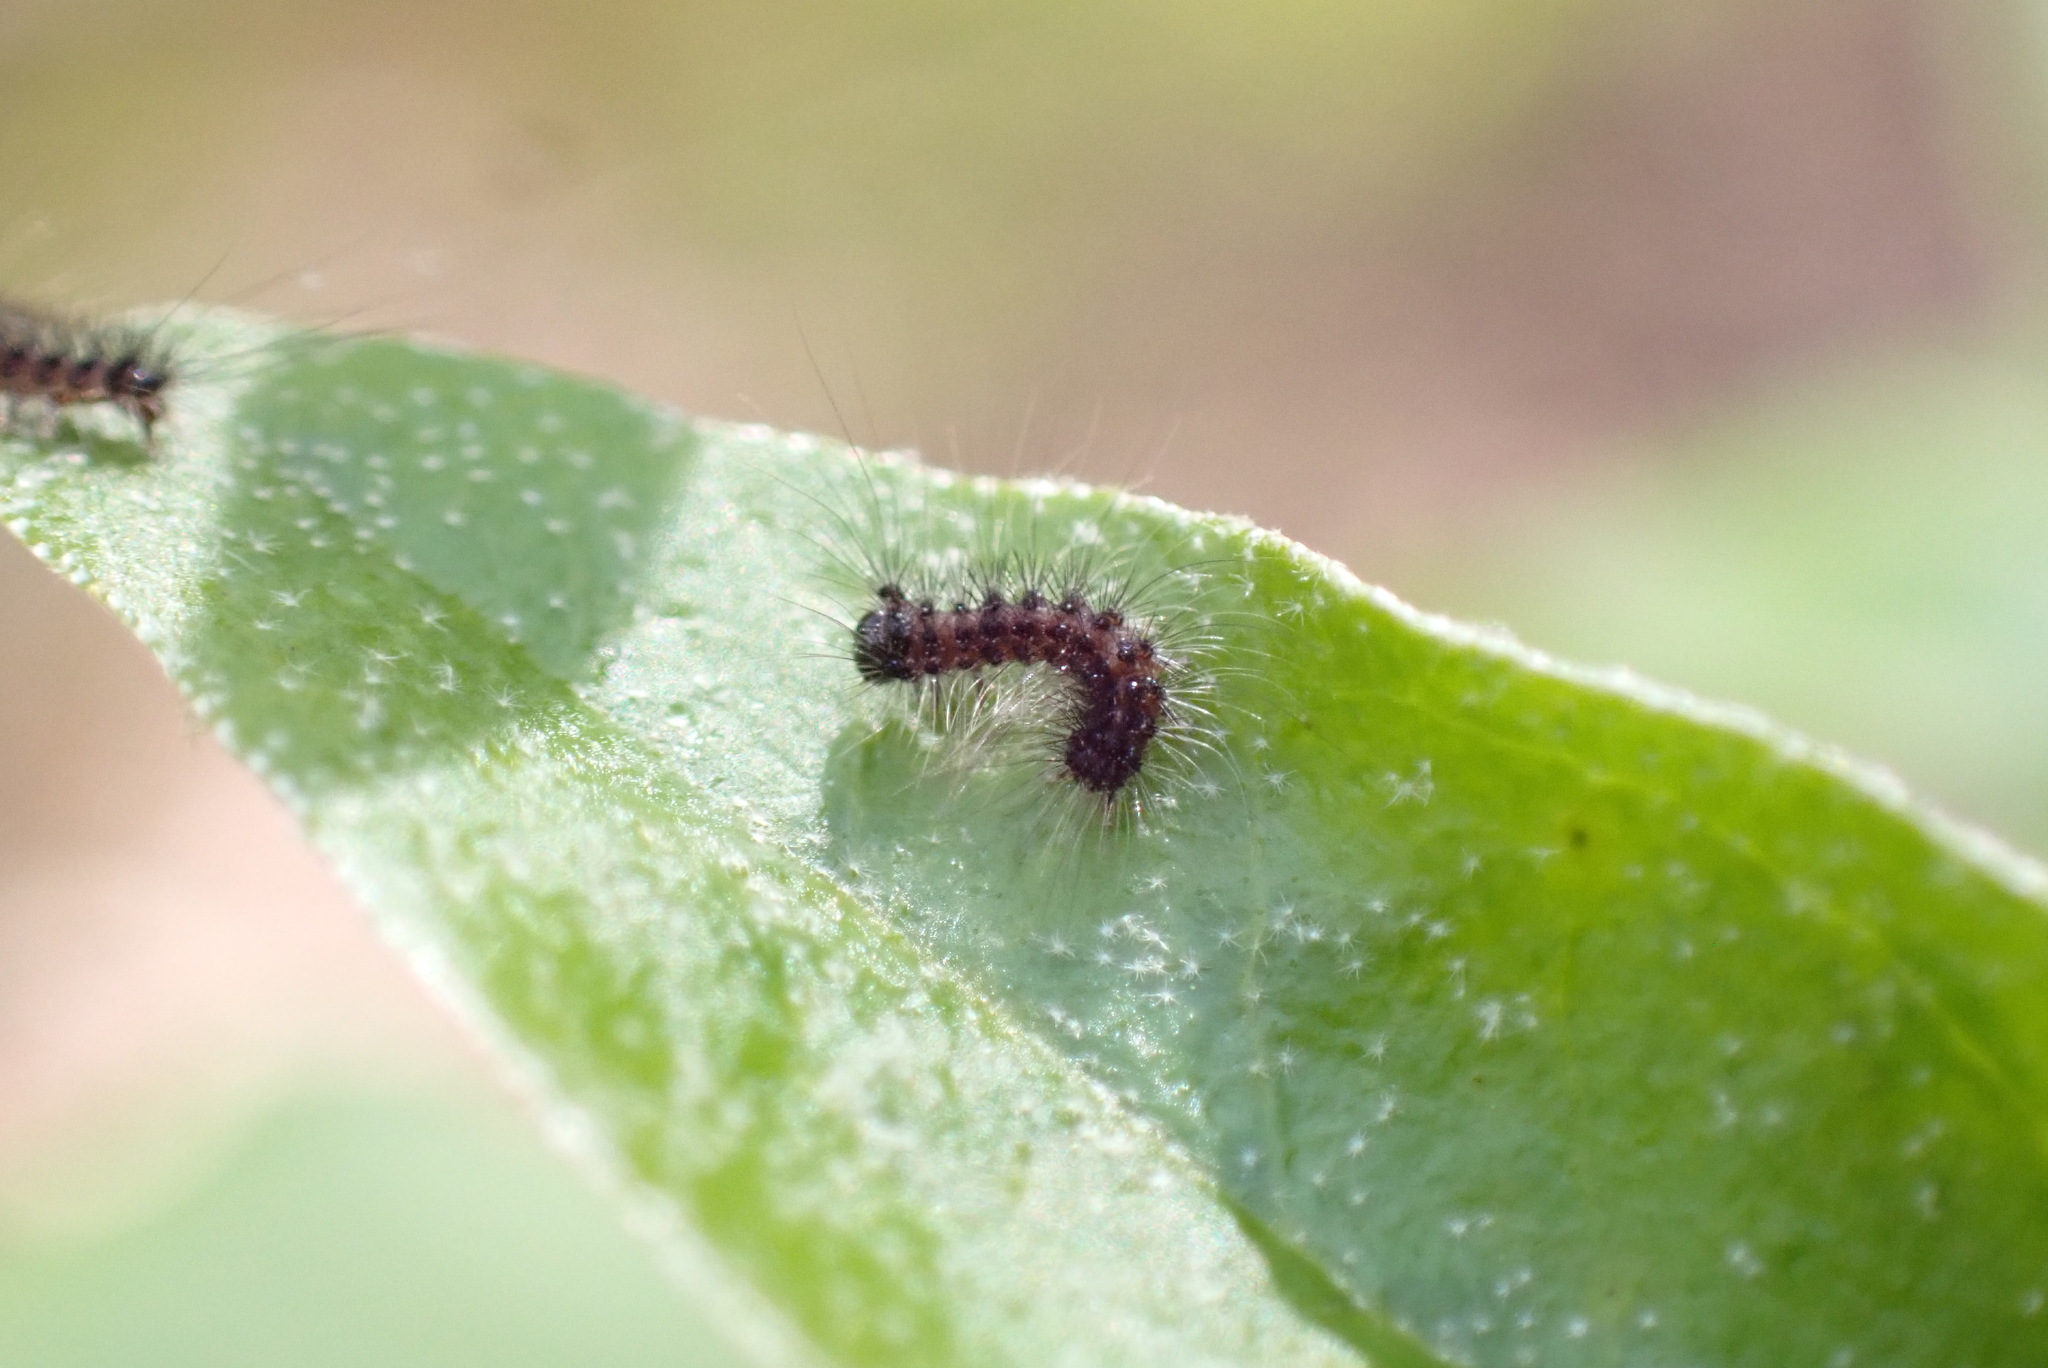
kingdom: Animalia
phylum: Arthropoda
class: Insecta
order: Lepidoptera
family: Erebidae
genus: Lymantria
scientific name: Lymantria dispar
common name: Gypsy moth
